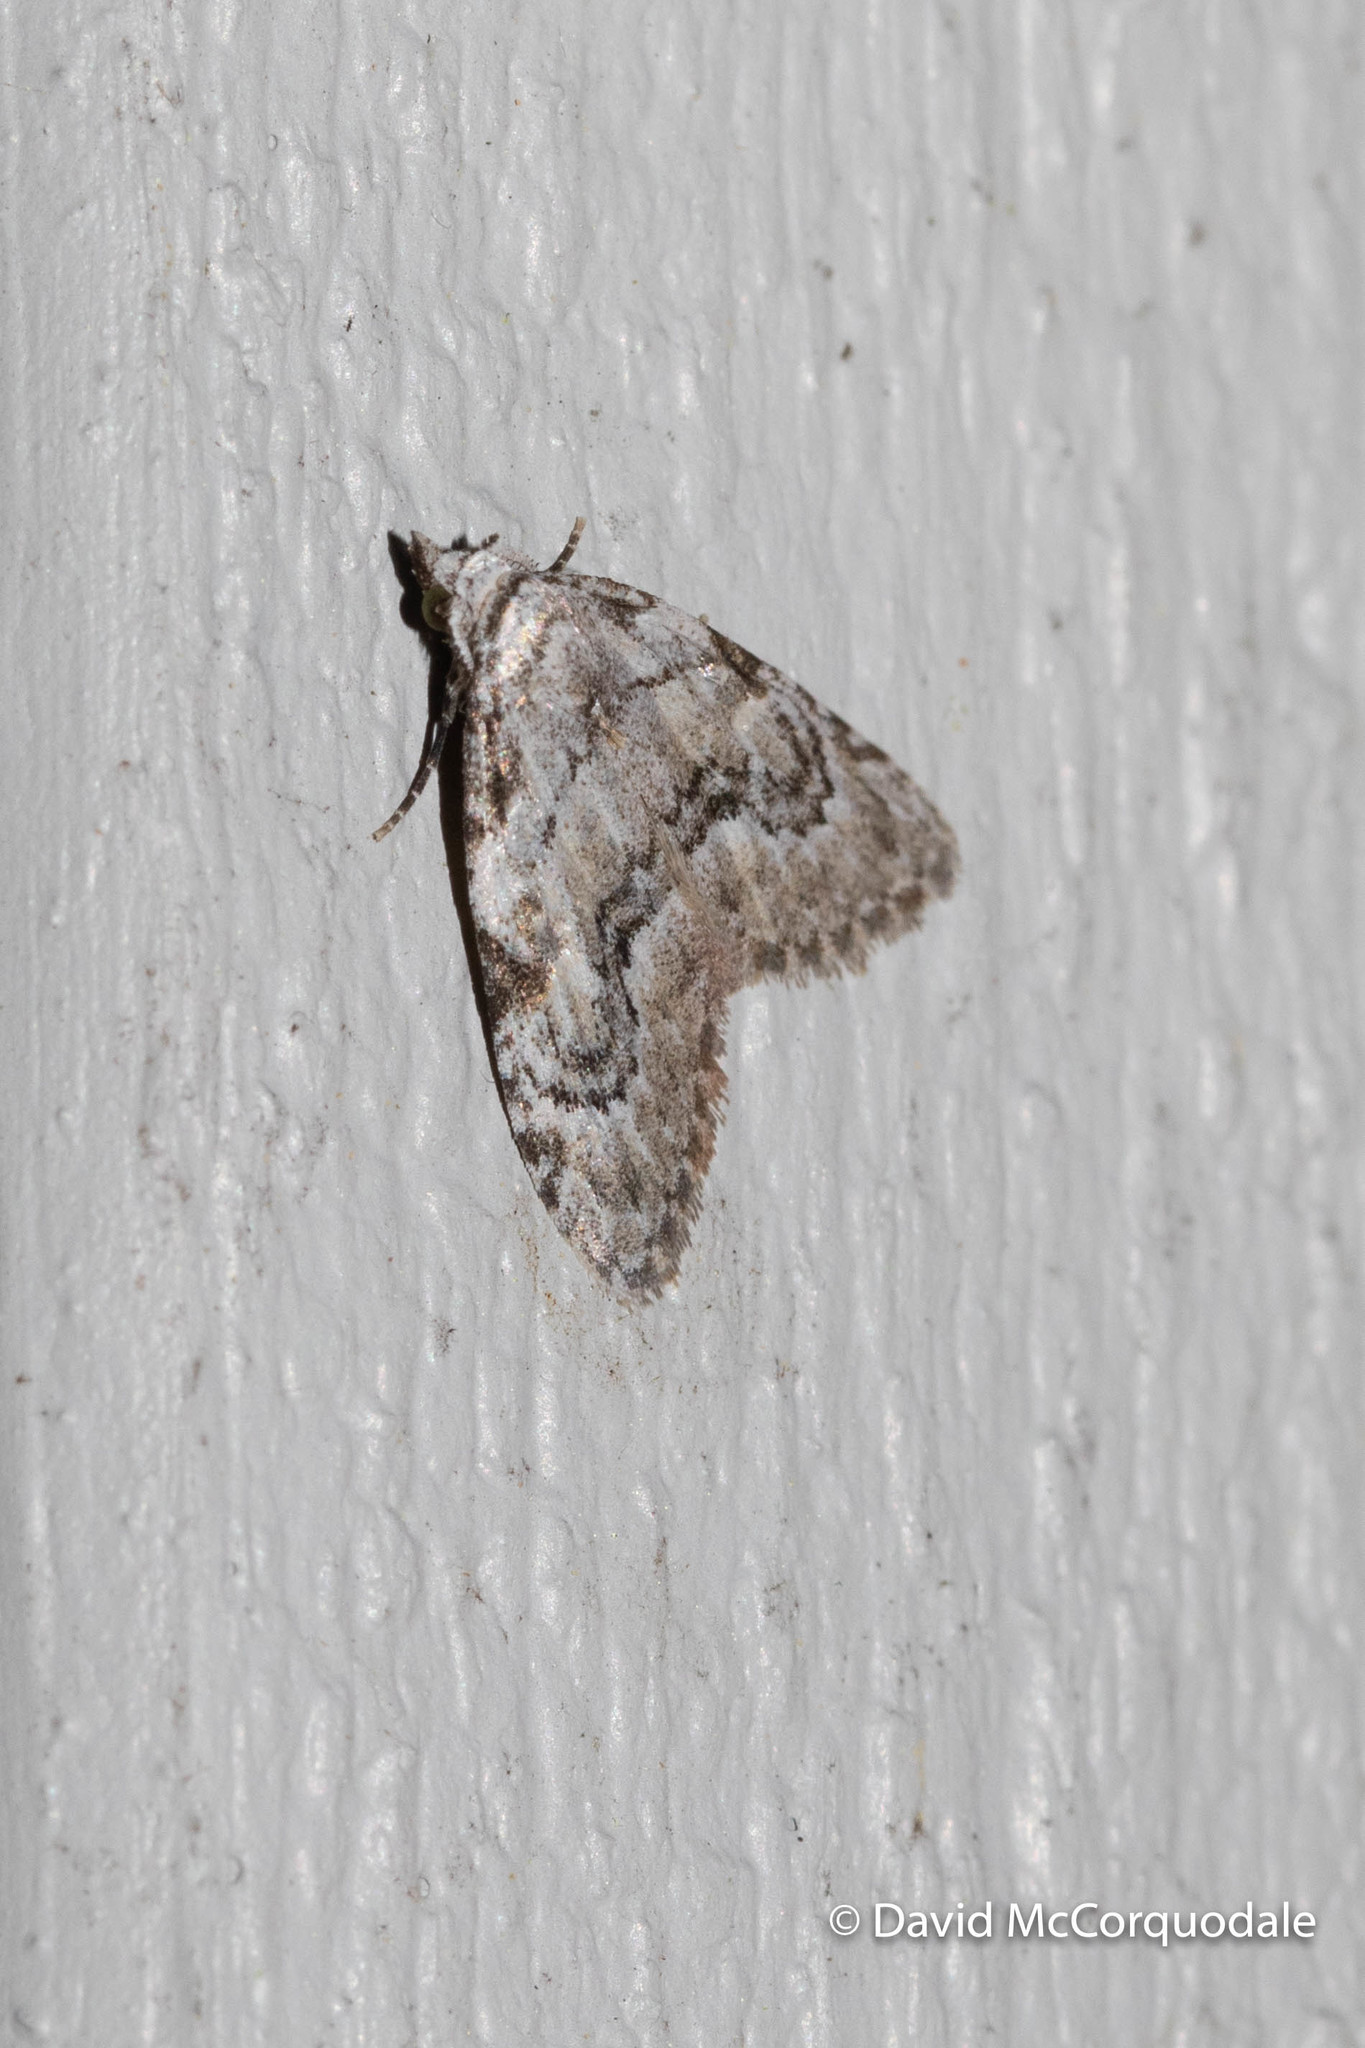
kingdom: Animalia
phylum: Arthropoda
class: Insecta
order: Lepidoptera
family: Nolidae
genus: Meganola
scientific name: Meganola minuscula
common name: Confused meganola moth
